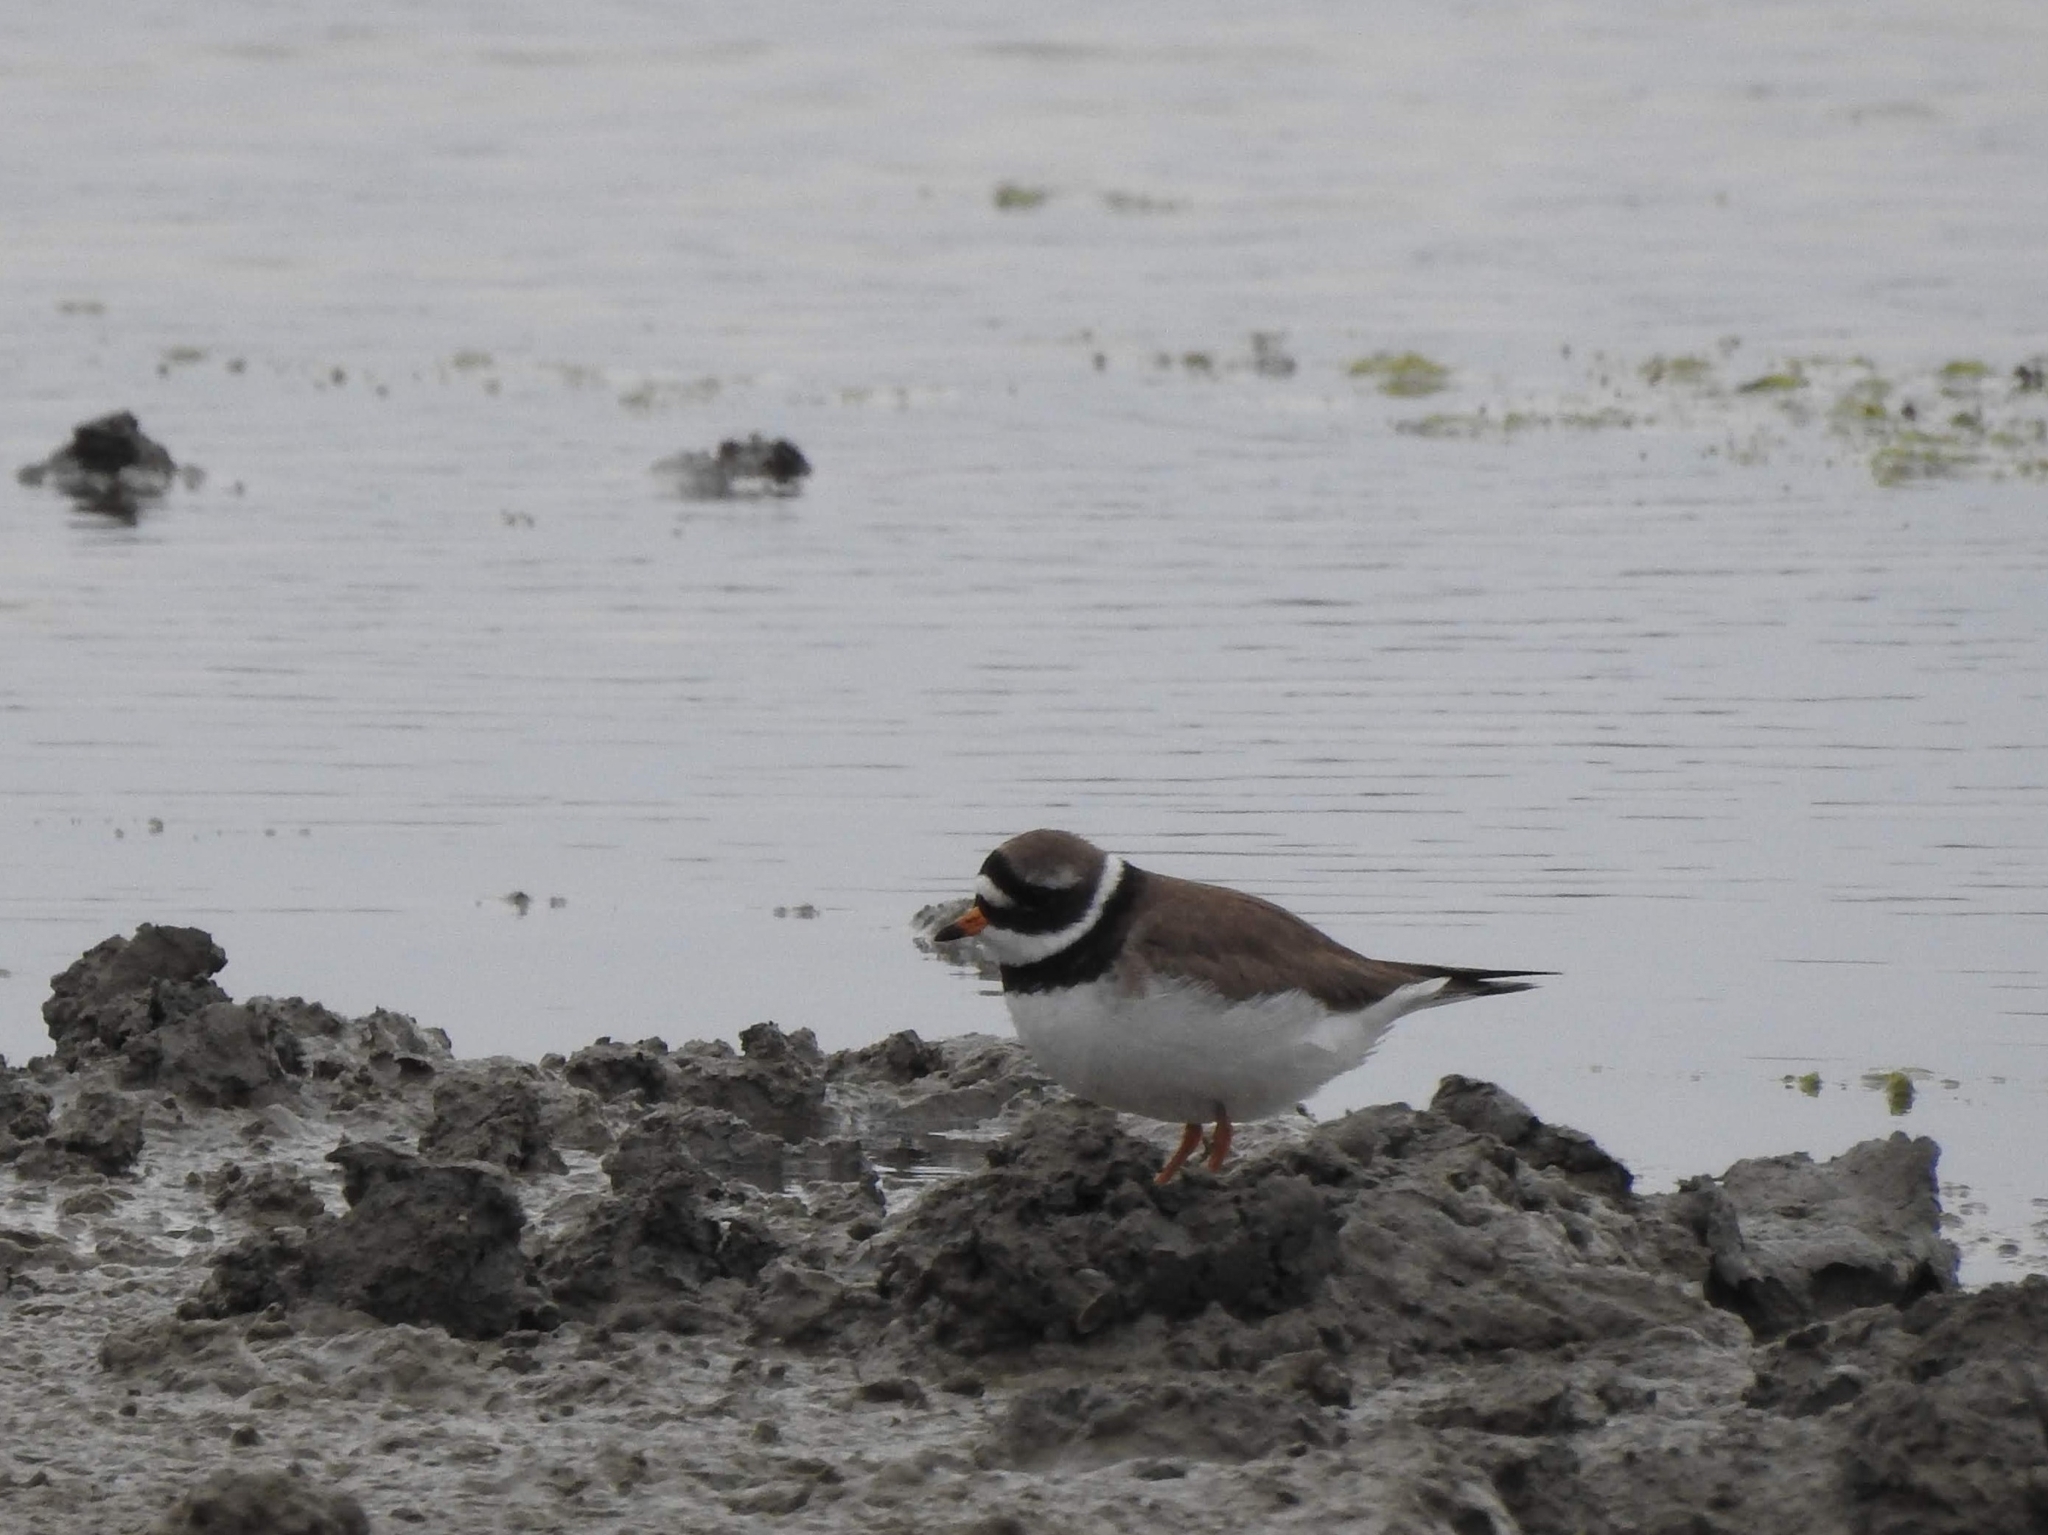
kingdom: Animalia
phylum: Chordata
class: Aves
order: Charadriiformes
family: Charadriidae
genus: Charadrius
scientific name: Charadrius hiaticula
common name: Common ringed plover
